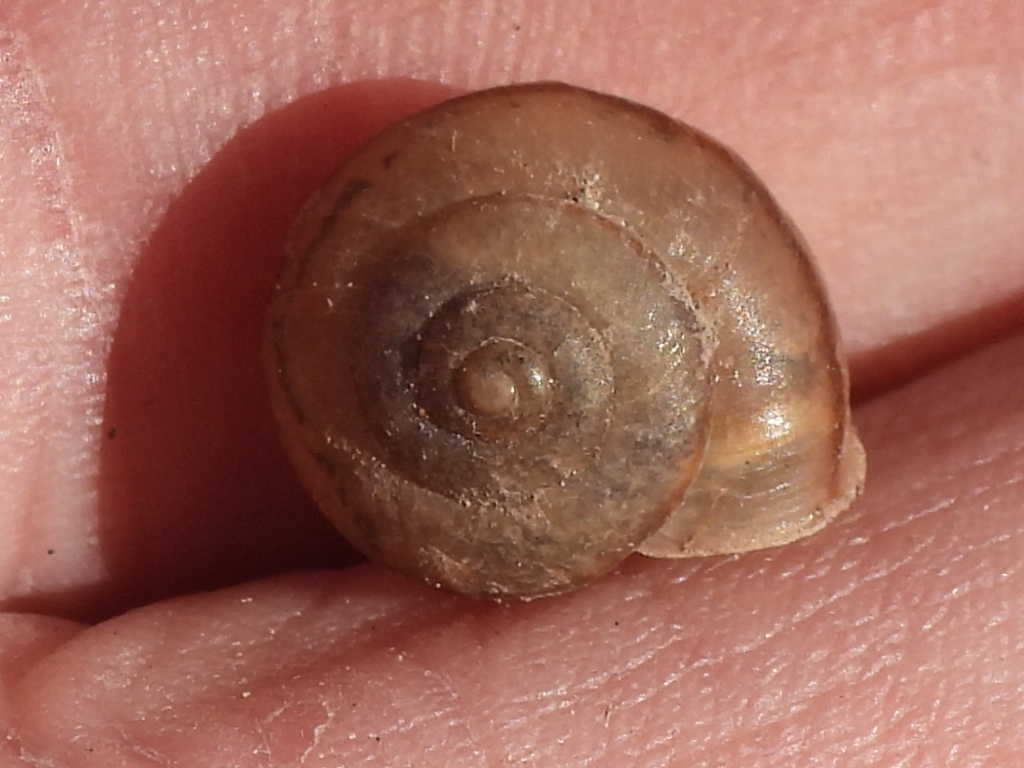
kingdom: Animalia
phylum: Mollusca
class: Gastropoda
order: Stylommatophora
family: Camaenidae
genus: Bradybaena
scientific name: Bradybaena similaris
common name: Asian trampsnail
